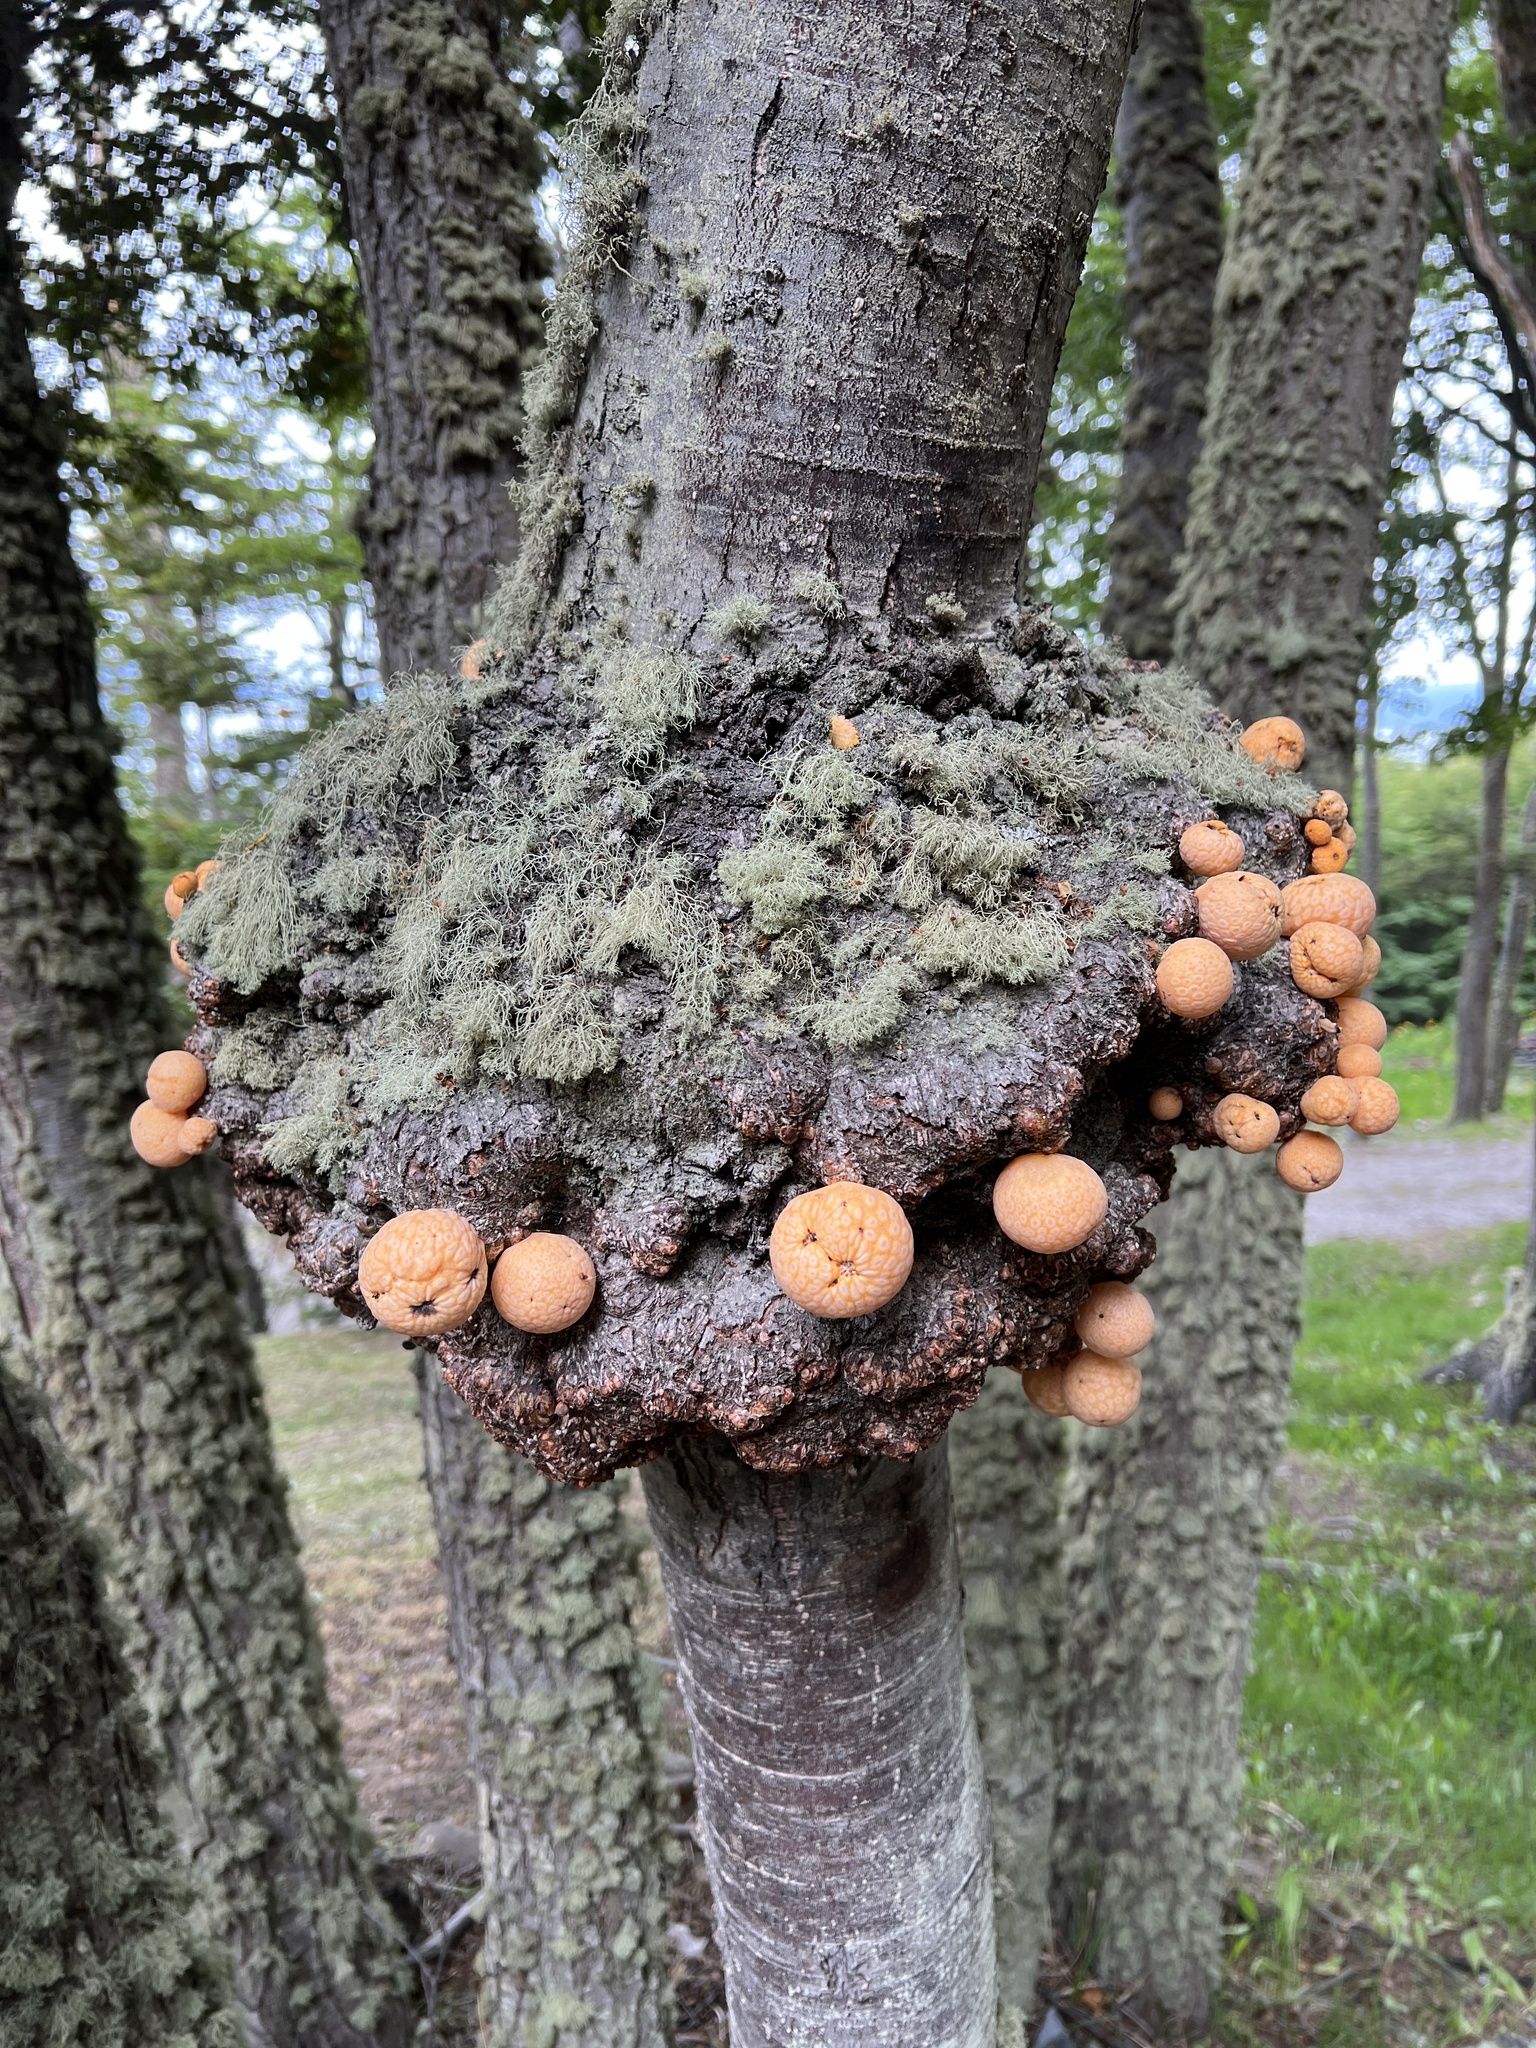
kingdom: Fungi
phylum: Ascomycota
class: Leotiomycetes
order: Cyttariales
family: Cyttariaceae
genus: Cyttaria
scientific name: Cyttaria hariotii
